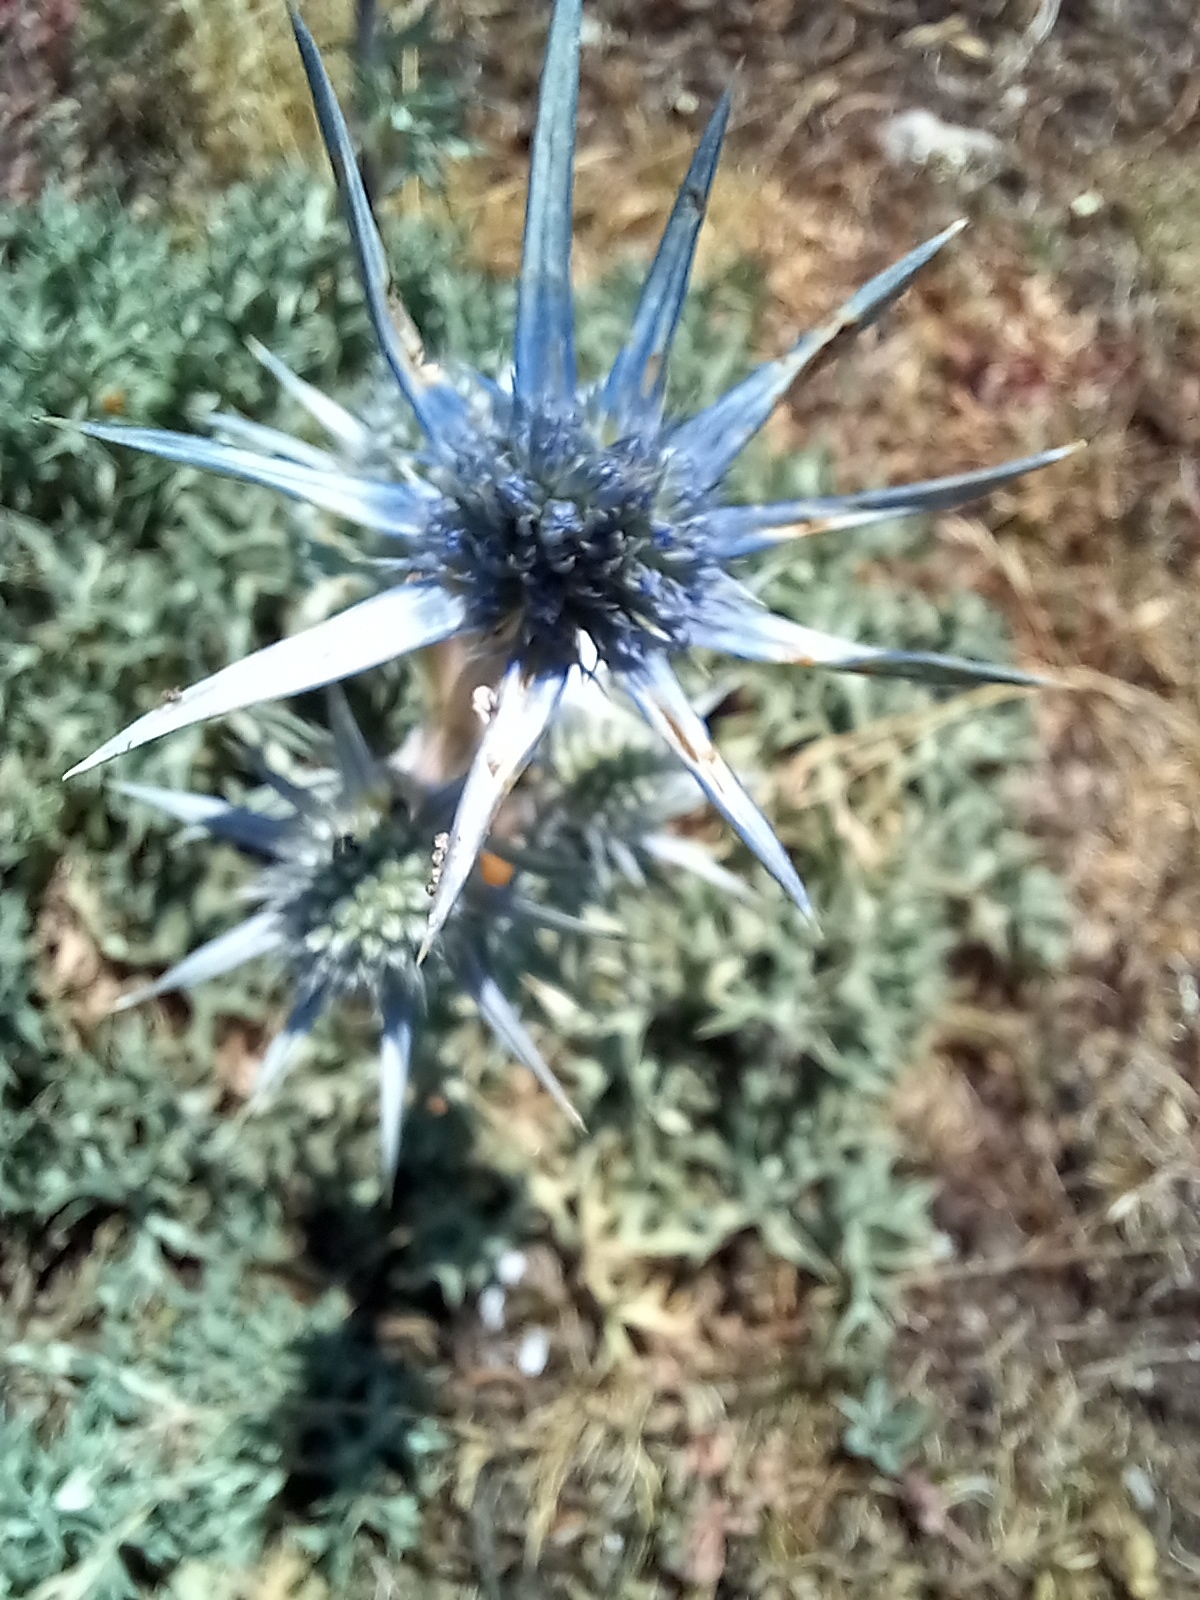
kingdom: Plantae
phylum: Tracheophyta
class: Magnoliopsida
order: Apiales
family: Apiaceae
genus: Eryngium
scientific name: Eryngium bourgatii
